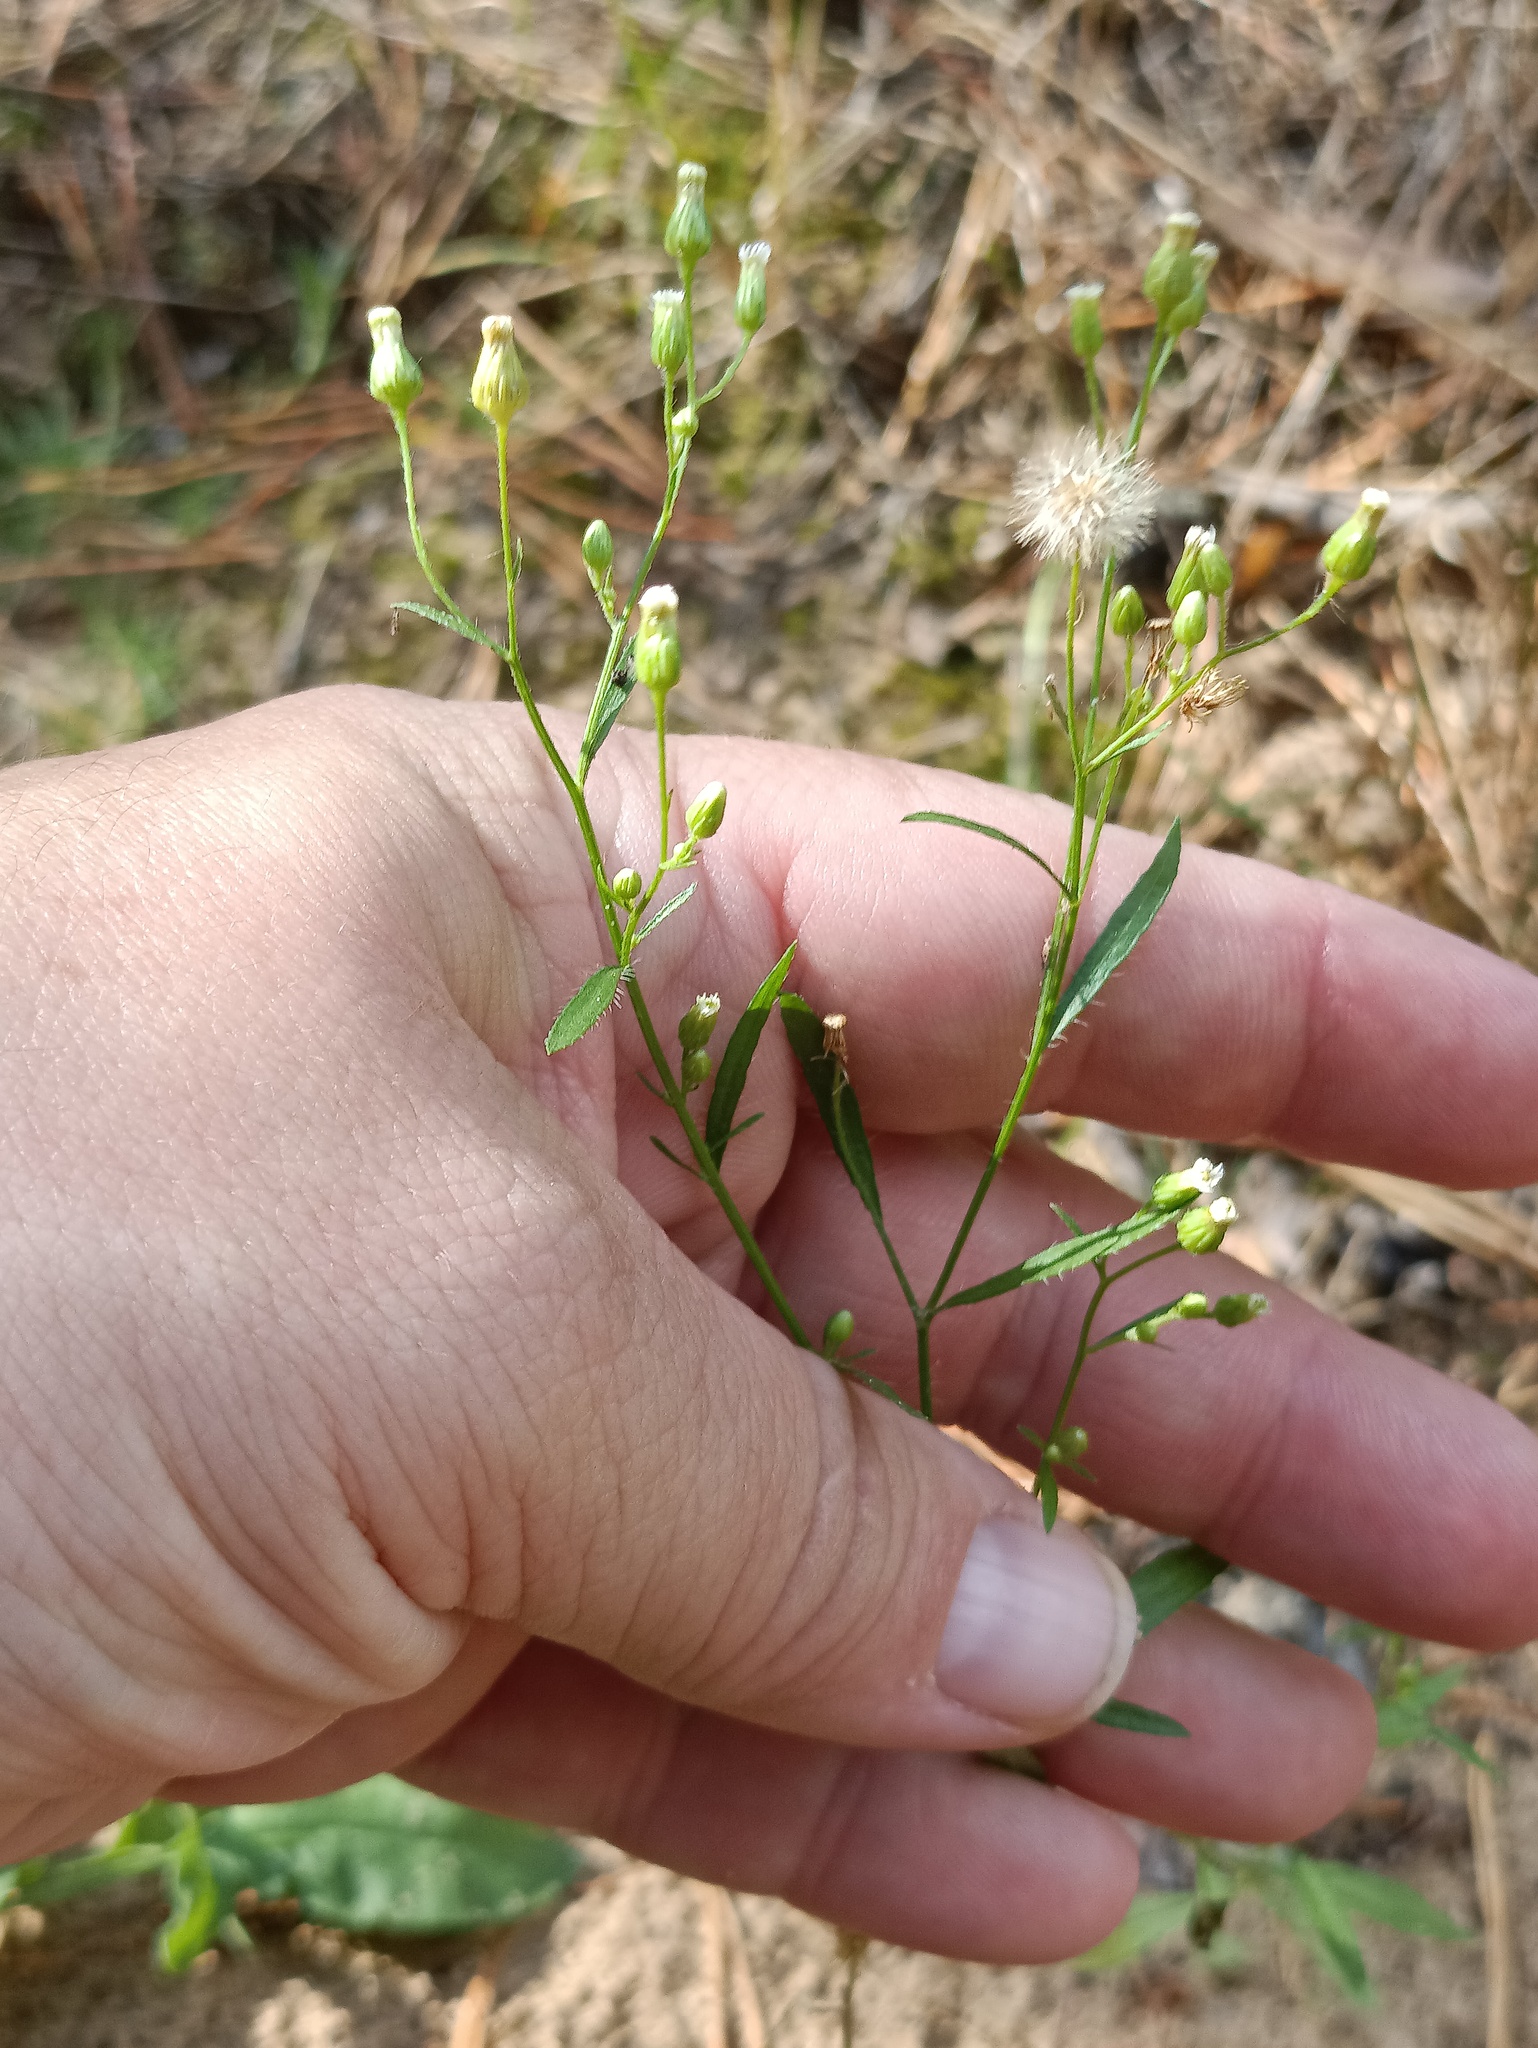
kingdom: Plantae
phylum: Tracheophyta
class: Magnoliopsida
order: Asterales
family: Asteraceae
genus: Erigeron
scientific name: Erigeron canadensis
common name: Canadian fleabane
